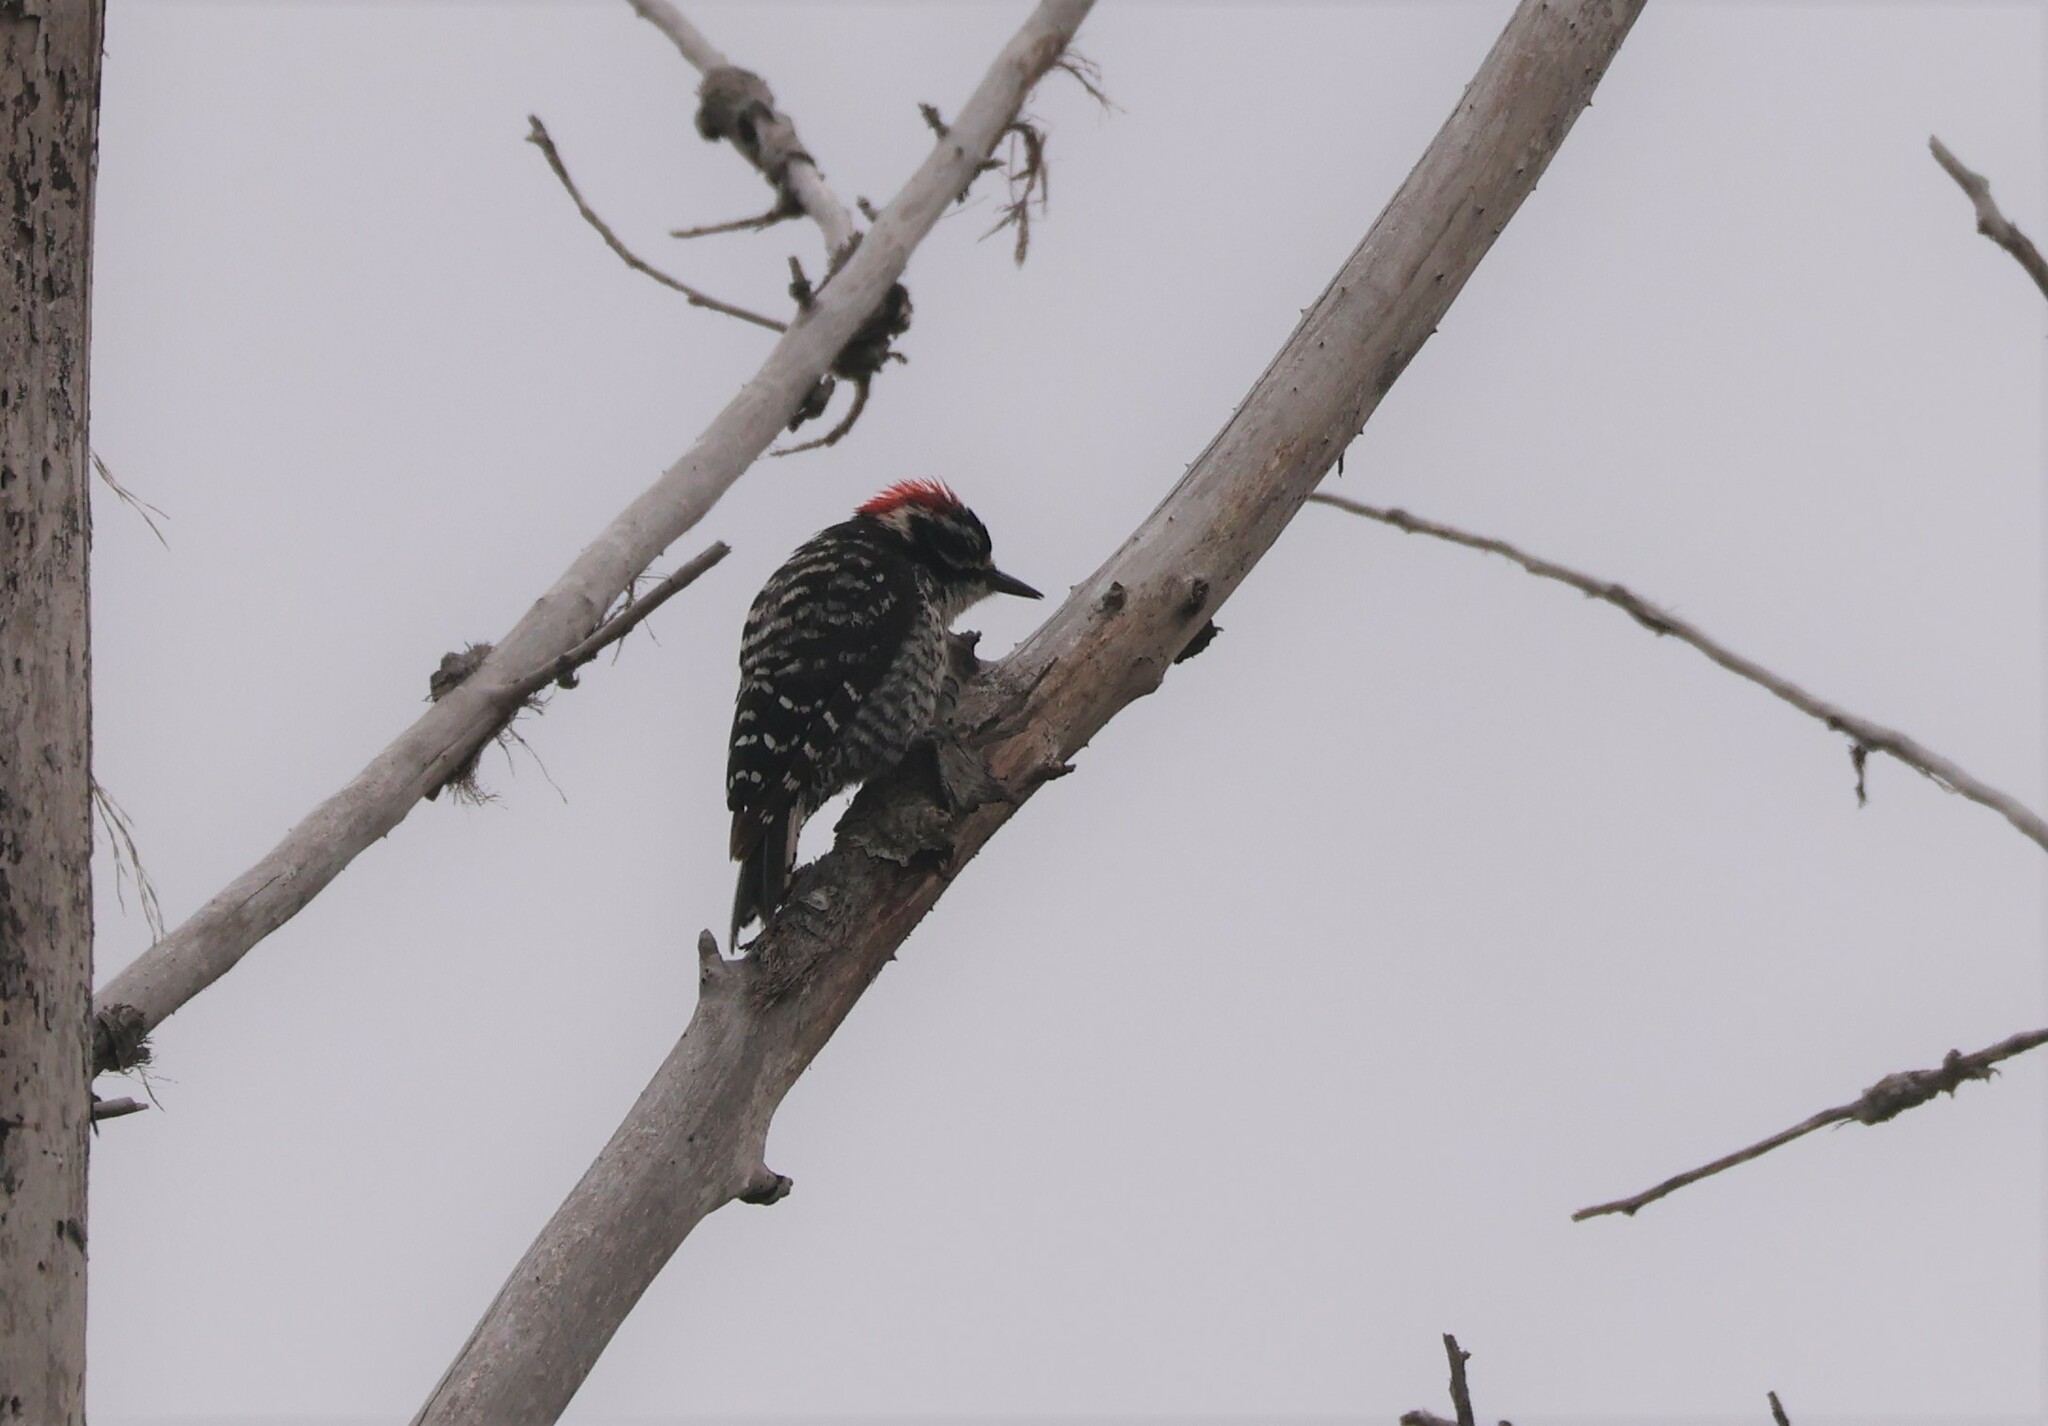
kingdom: Animalia
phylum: Chordata
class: Aves
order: Piciformes
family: Picidae
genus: Dryobates
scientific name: Dryobates nuttallii
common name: Nuttall's woodpecker
